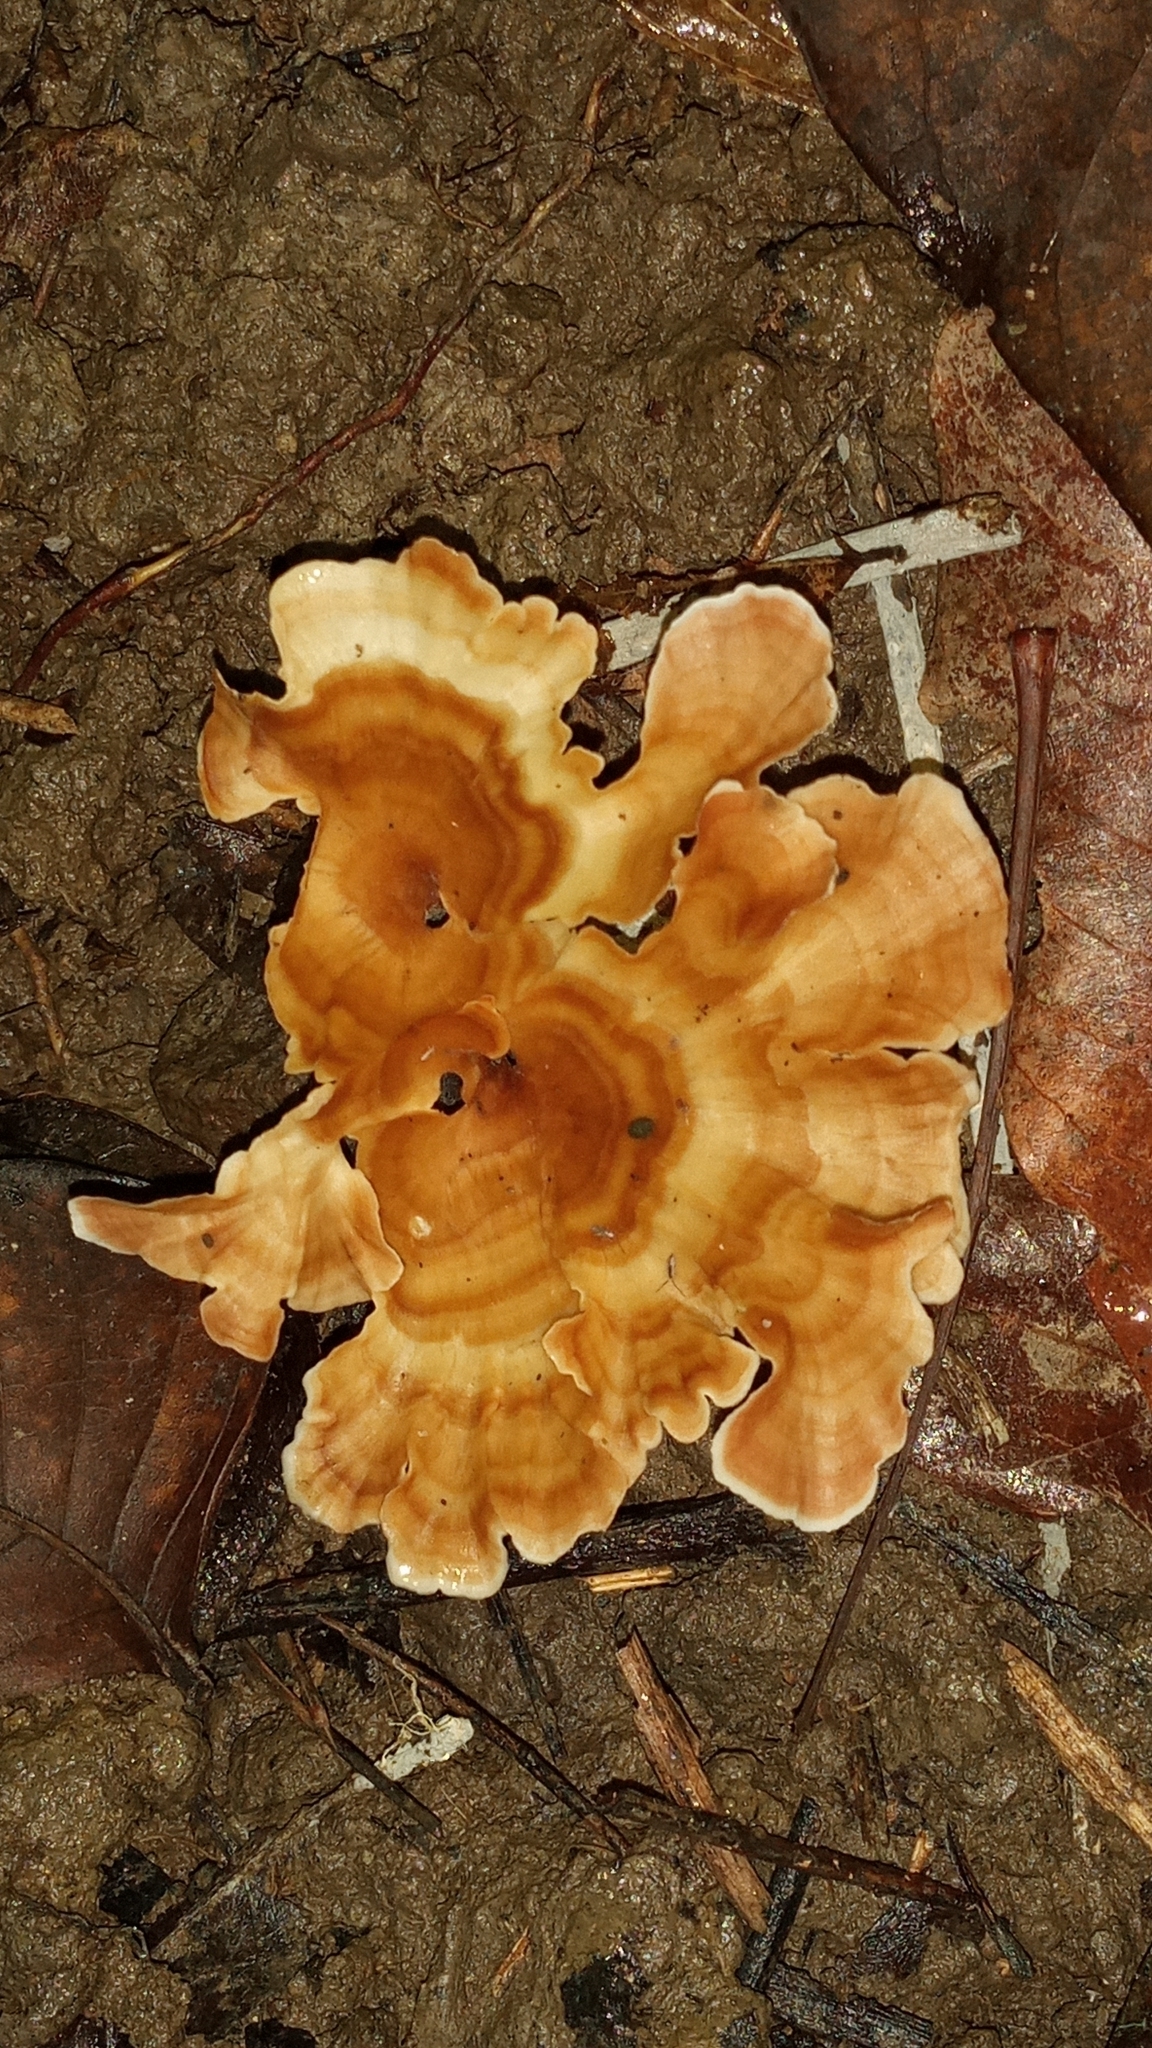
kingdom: Fungi
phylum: Basidiomycota
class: Agaricomycetes
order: Polyporales
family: Podoscyphaceae
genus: Podoscypha
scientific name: Podoscypha petalodes
